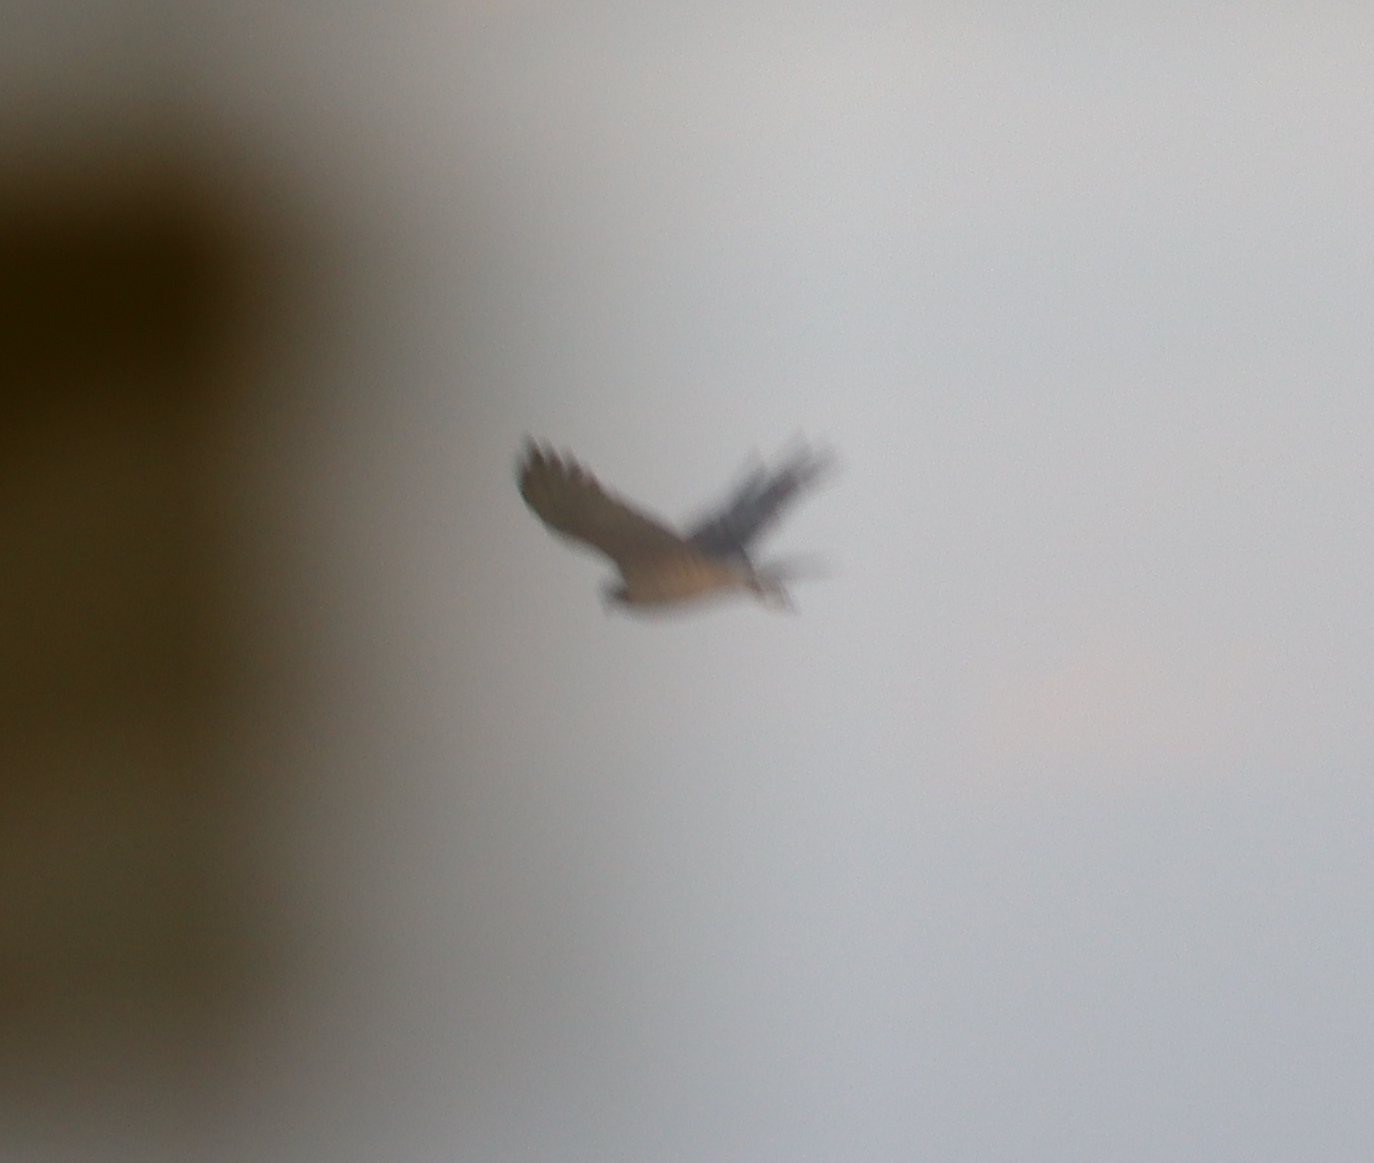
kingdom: Animalia
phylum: Chordata
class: Aves
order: Accipitriformes
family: Accipitridae
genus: Circus
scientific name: Circus approximans
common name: Swamp harrier
